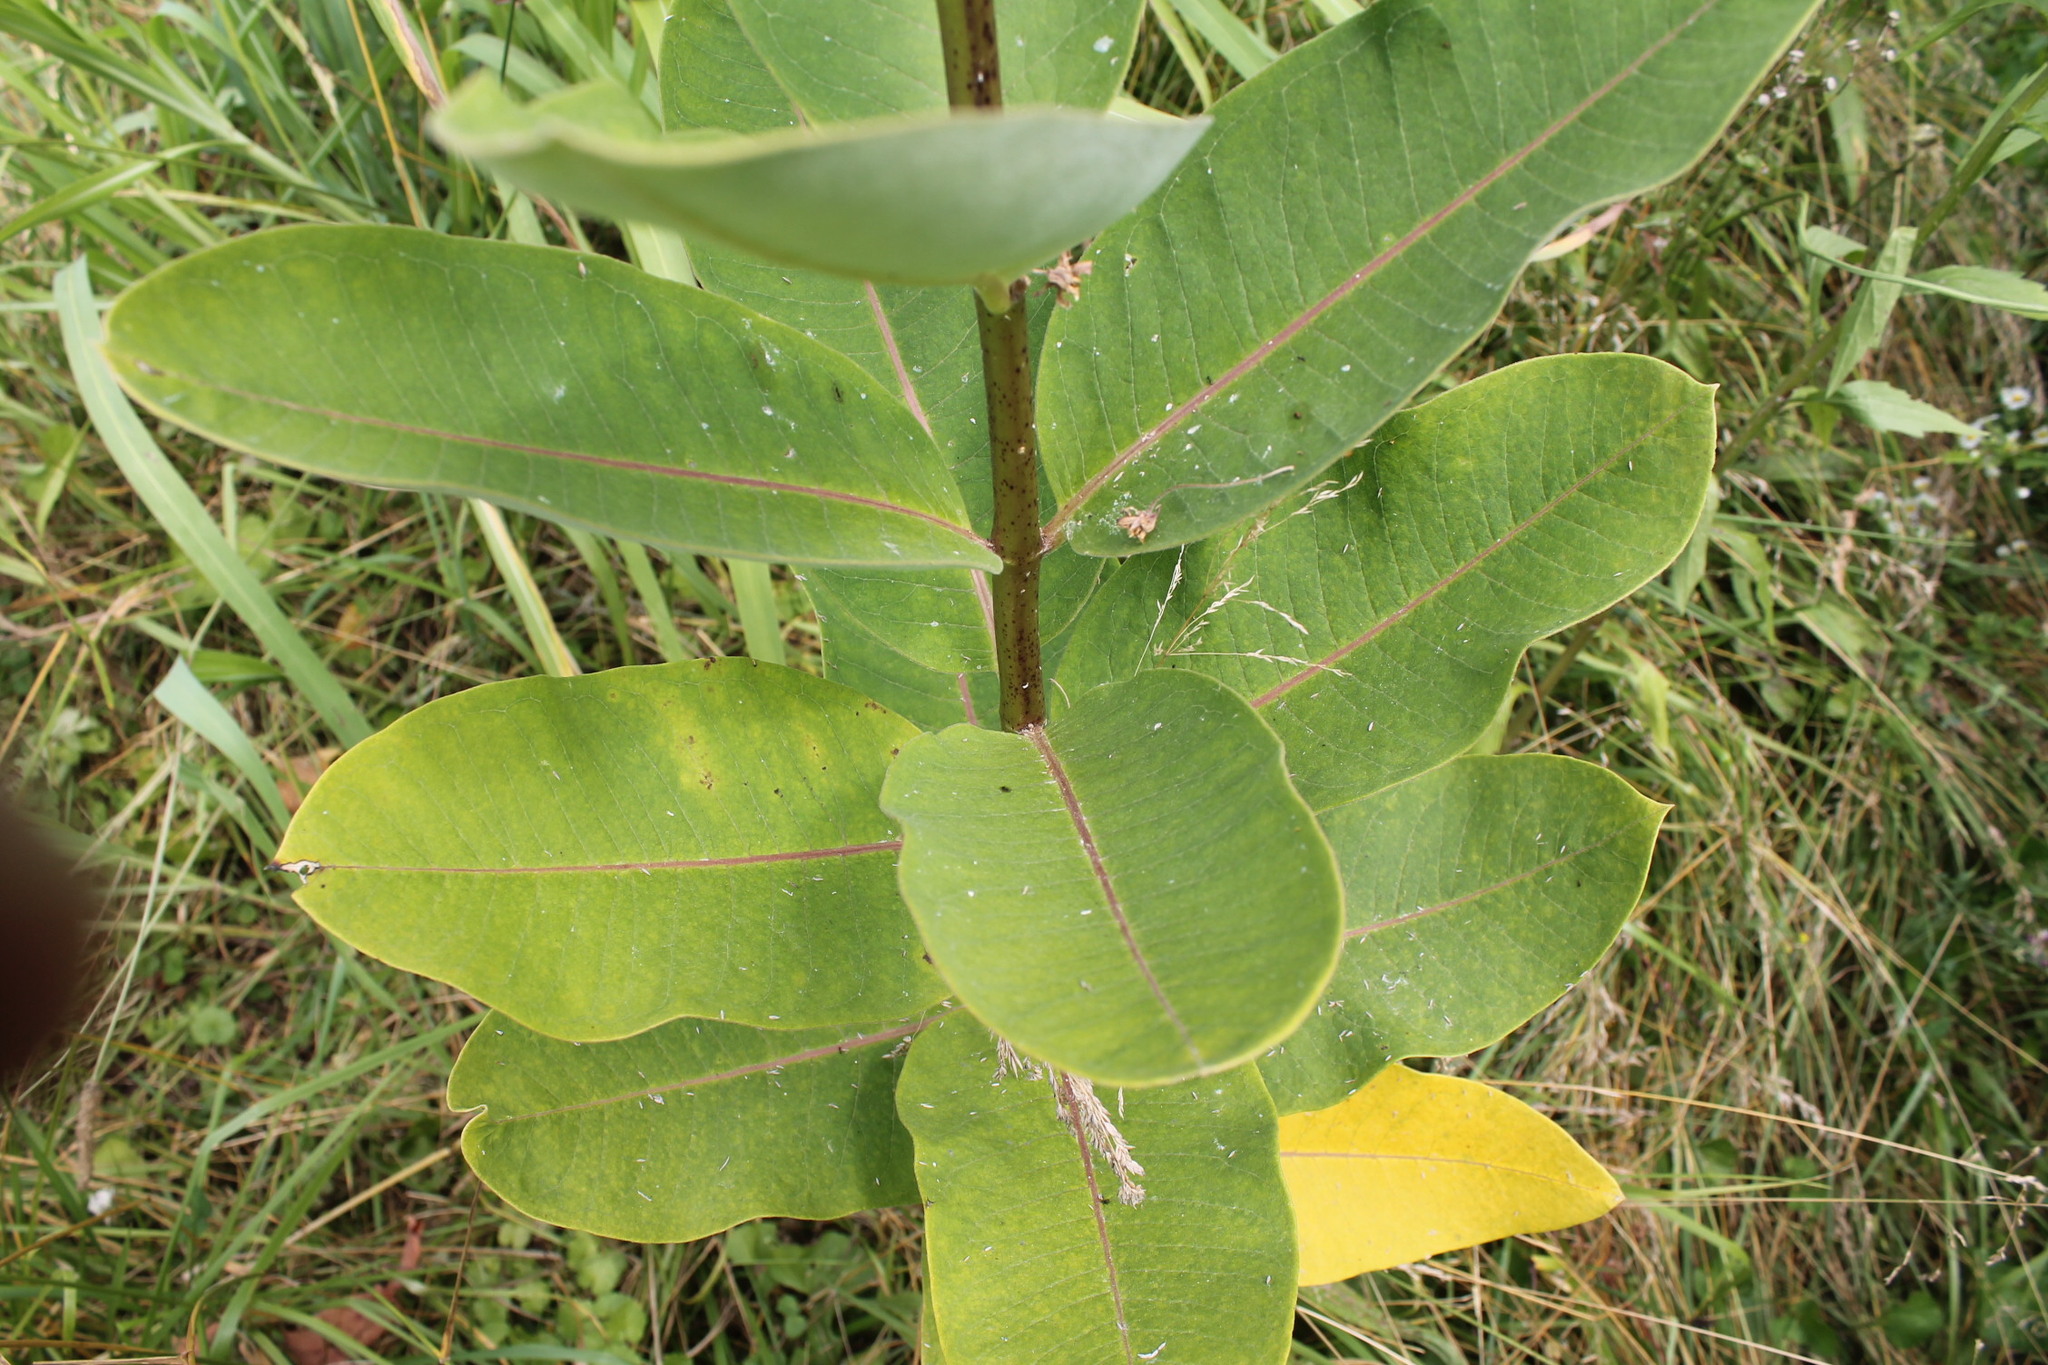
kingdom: Plantae
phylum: Tracheophyta
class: Magnoliopsida
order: Gentianales
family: Apocynaceae
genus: Asclepias
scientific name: Asclepias syriaca
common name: Common milkweed
